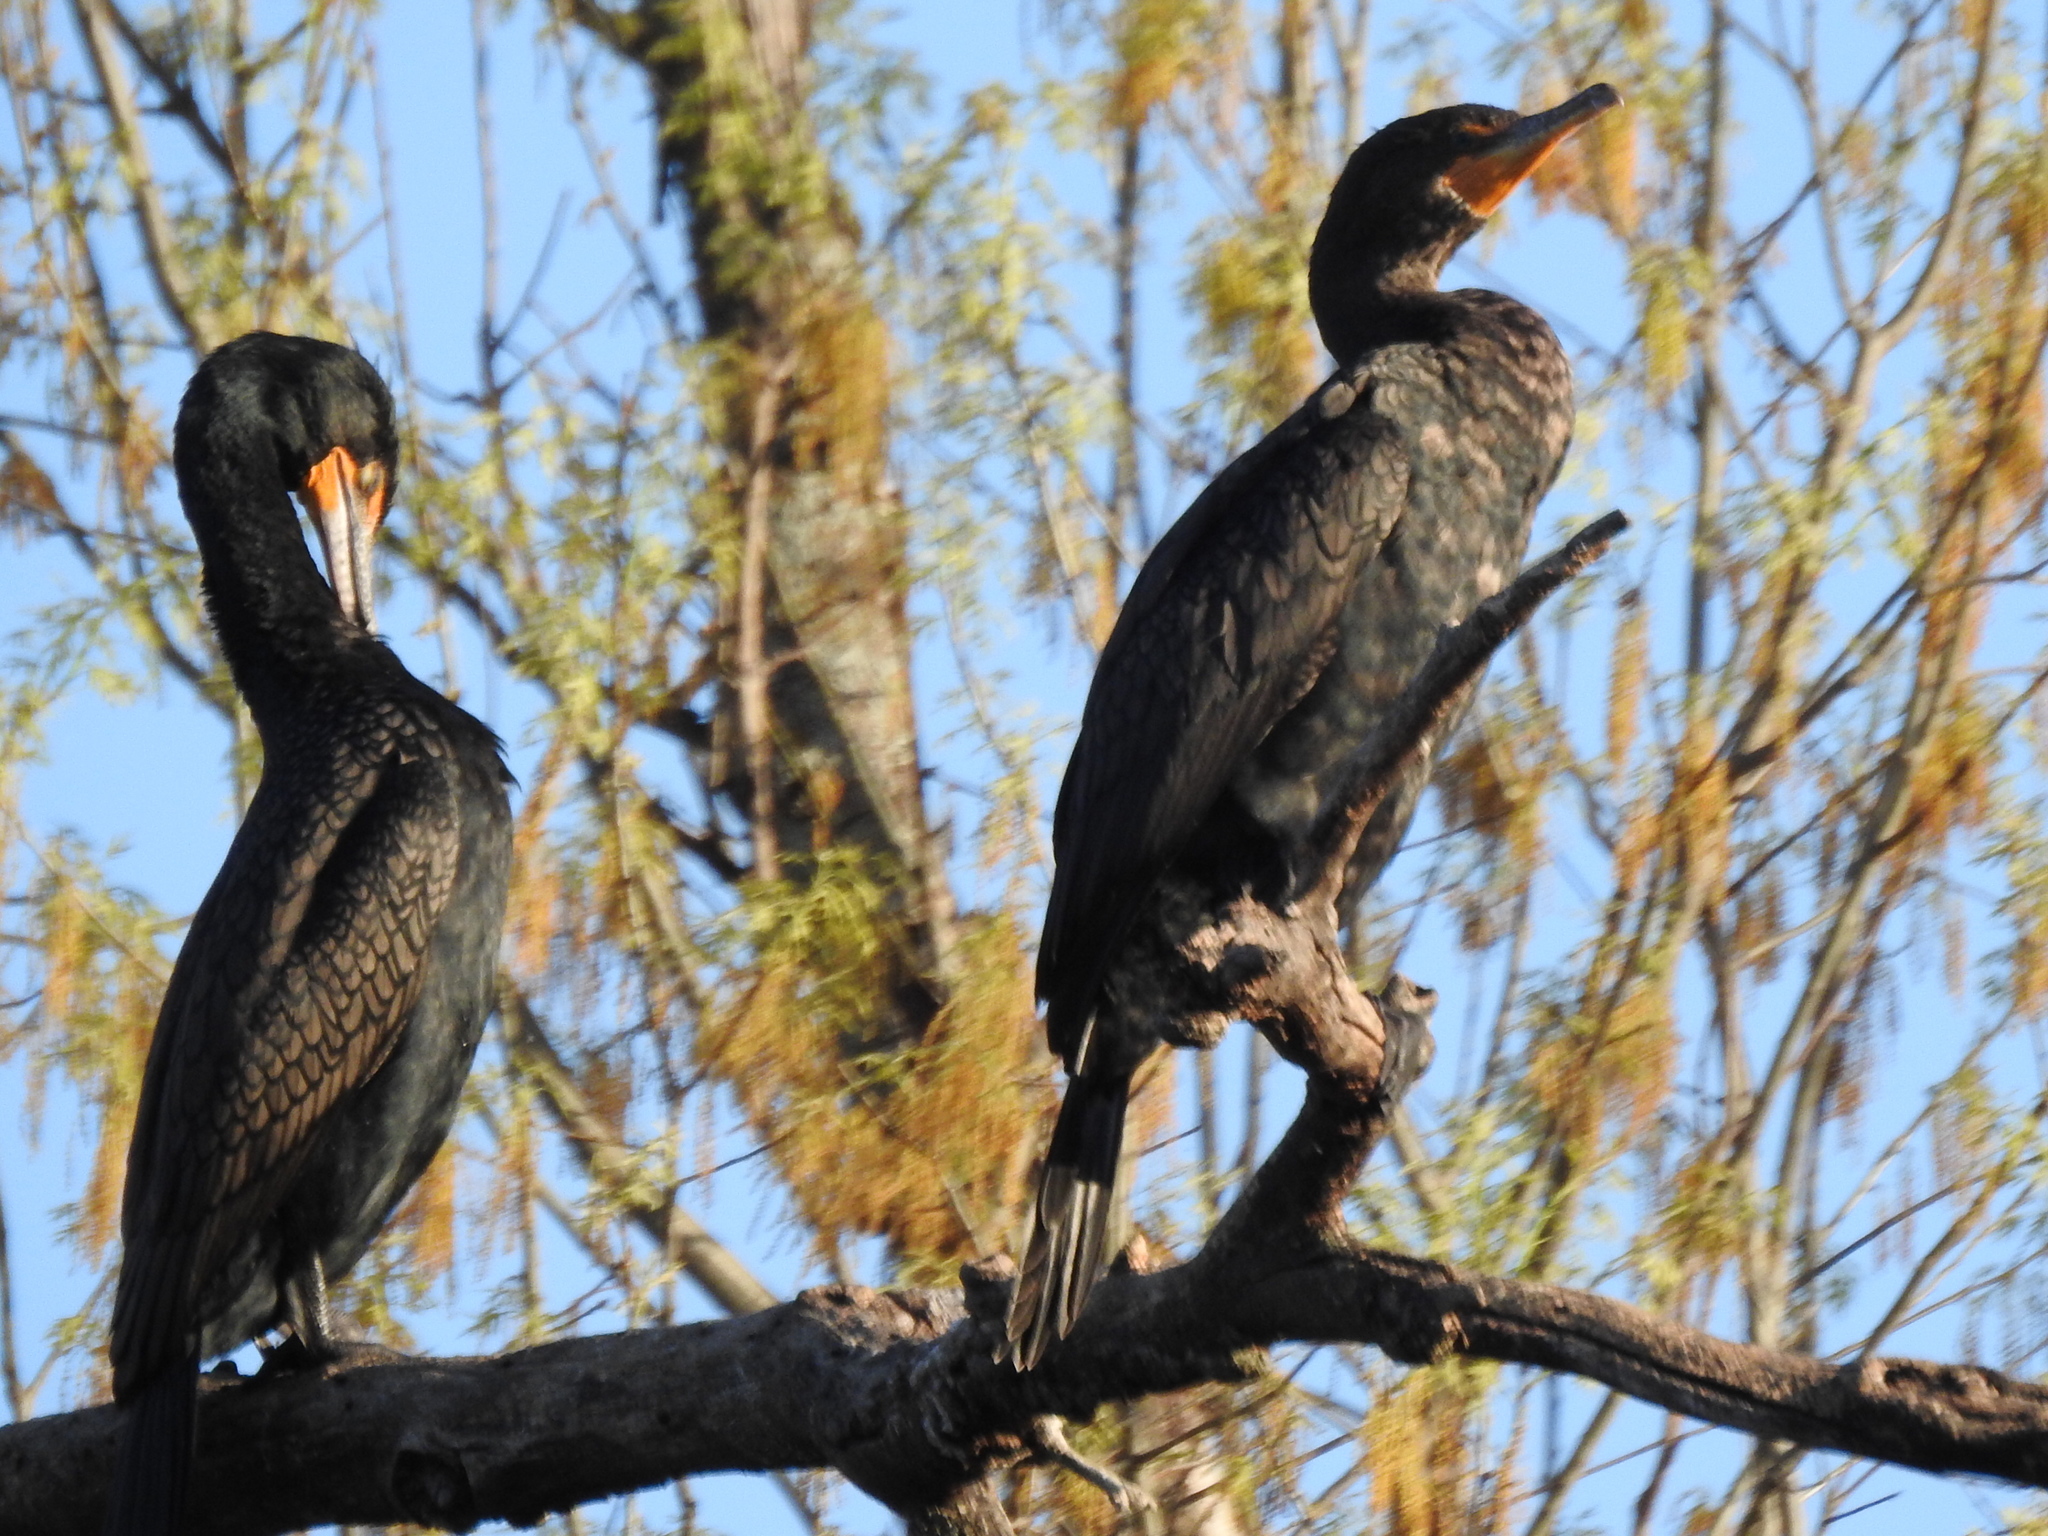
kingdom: Animalia
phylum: Chordata
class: Aves
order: Suliformes
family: Phalacrocoracidae
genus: Phalacrocorax
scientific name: Phalacrocorax auritus
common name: Double-crested cormorant
